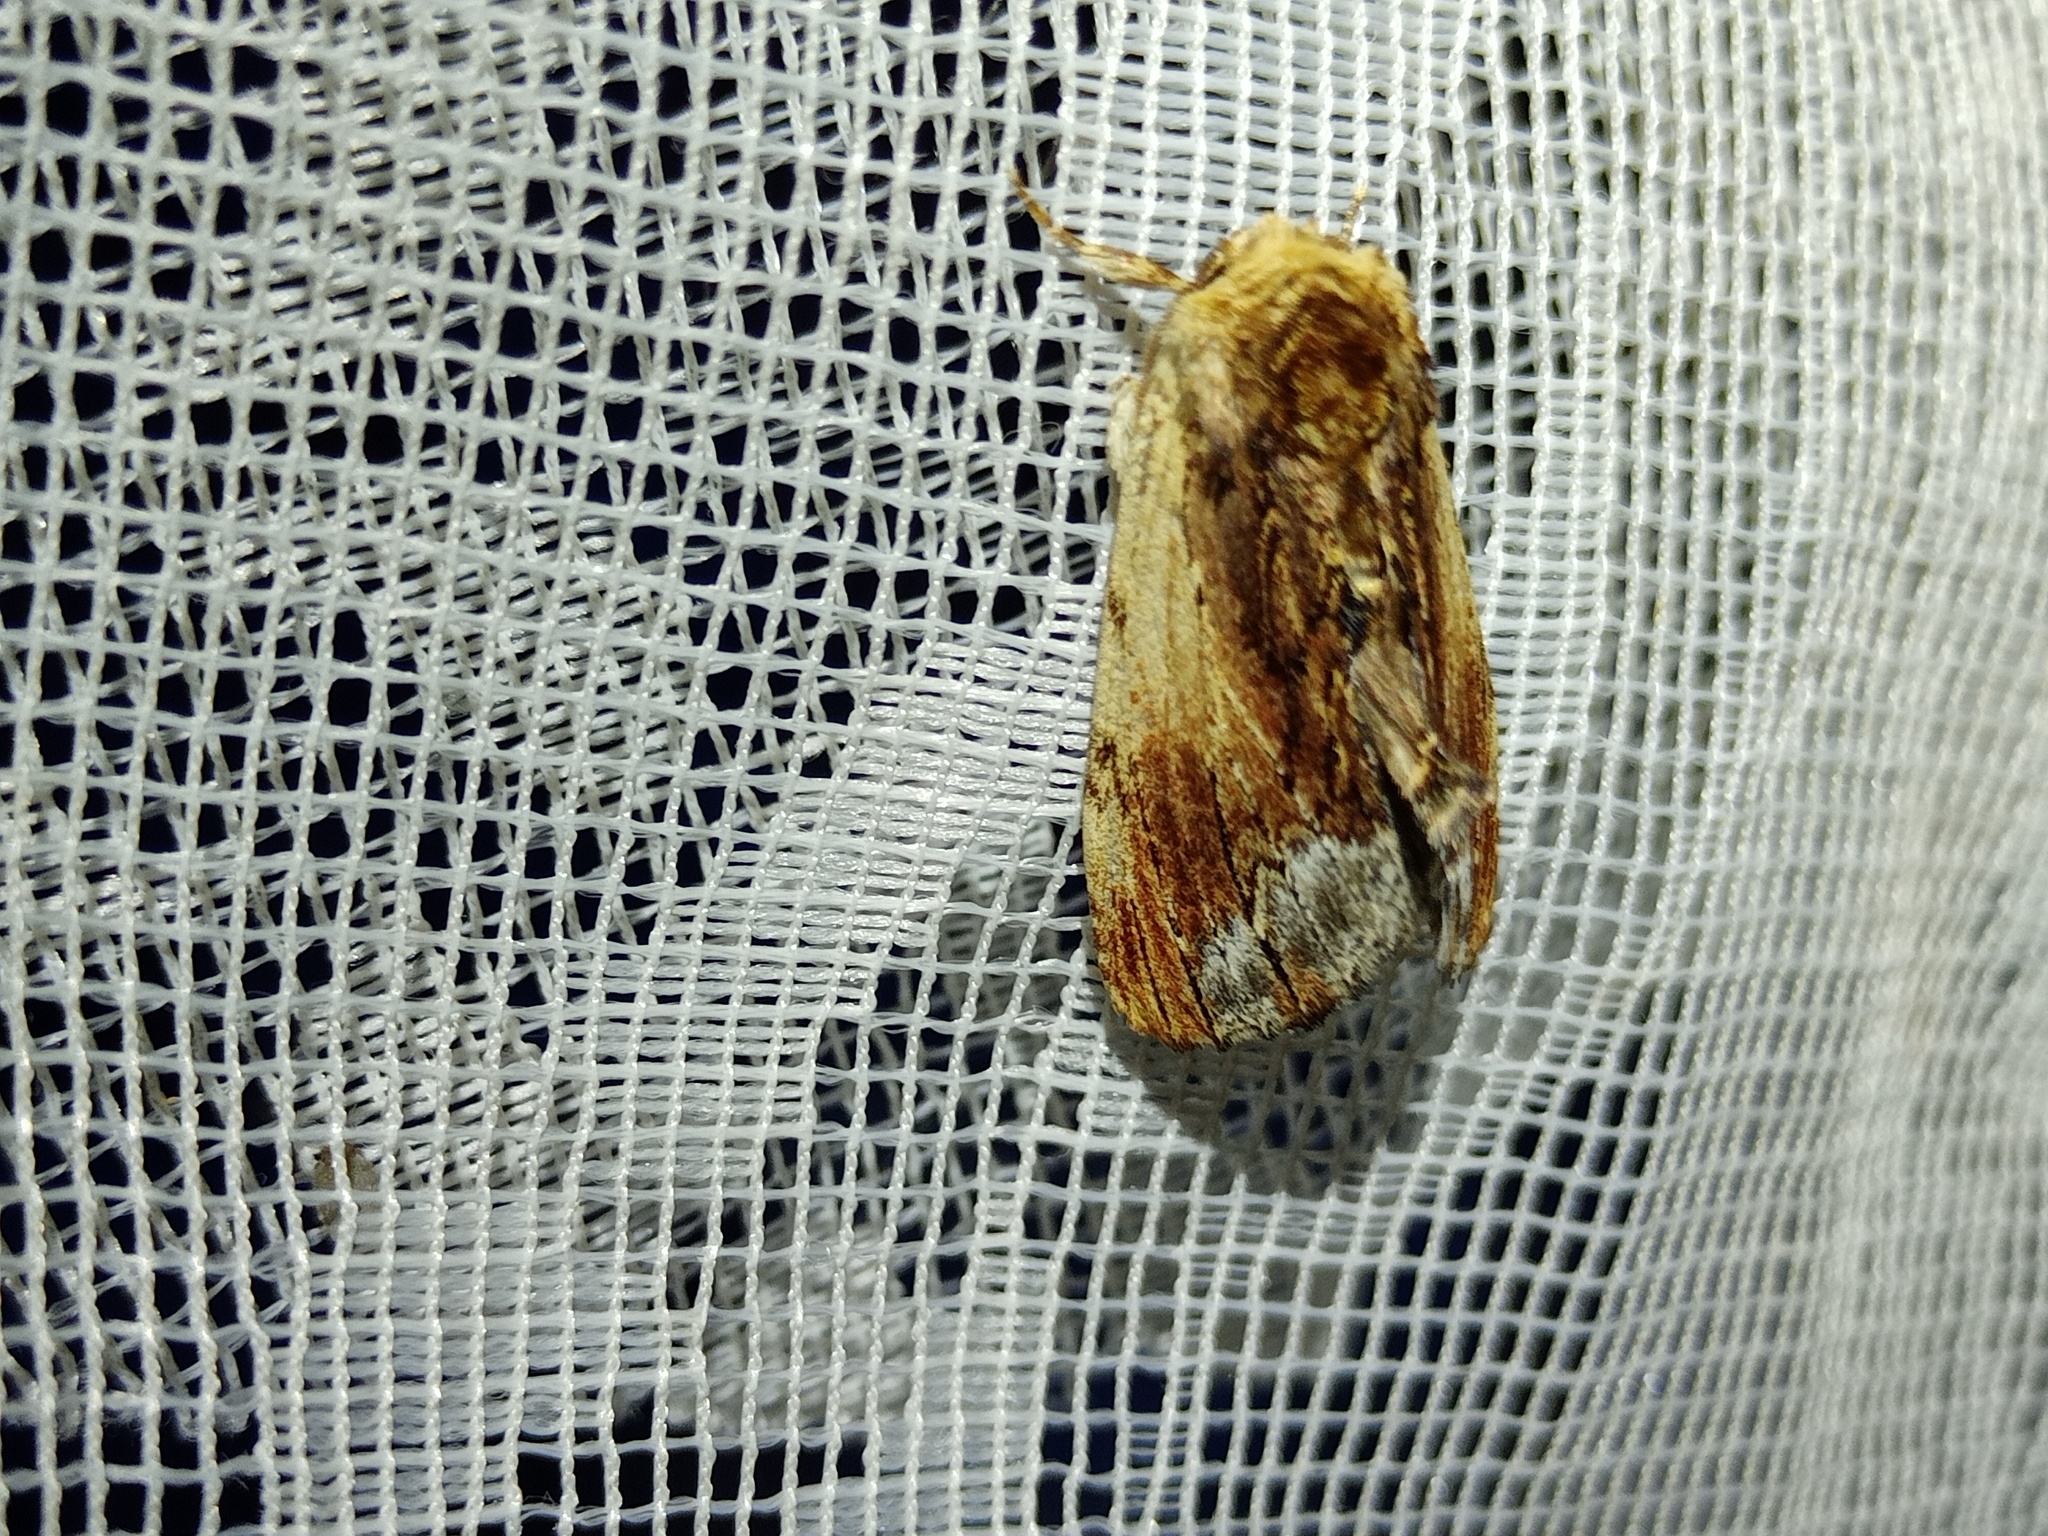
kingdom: Animalia
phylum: Arthropoda
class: Insecta
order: Lepidoptera
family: Notodontidae
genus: Ptilodon
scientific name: Ptilodon cucullina
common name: Maple prominent
